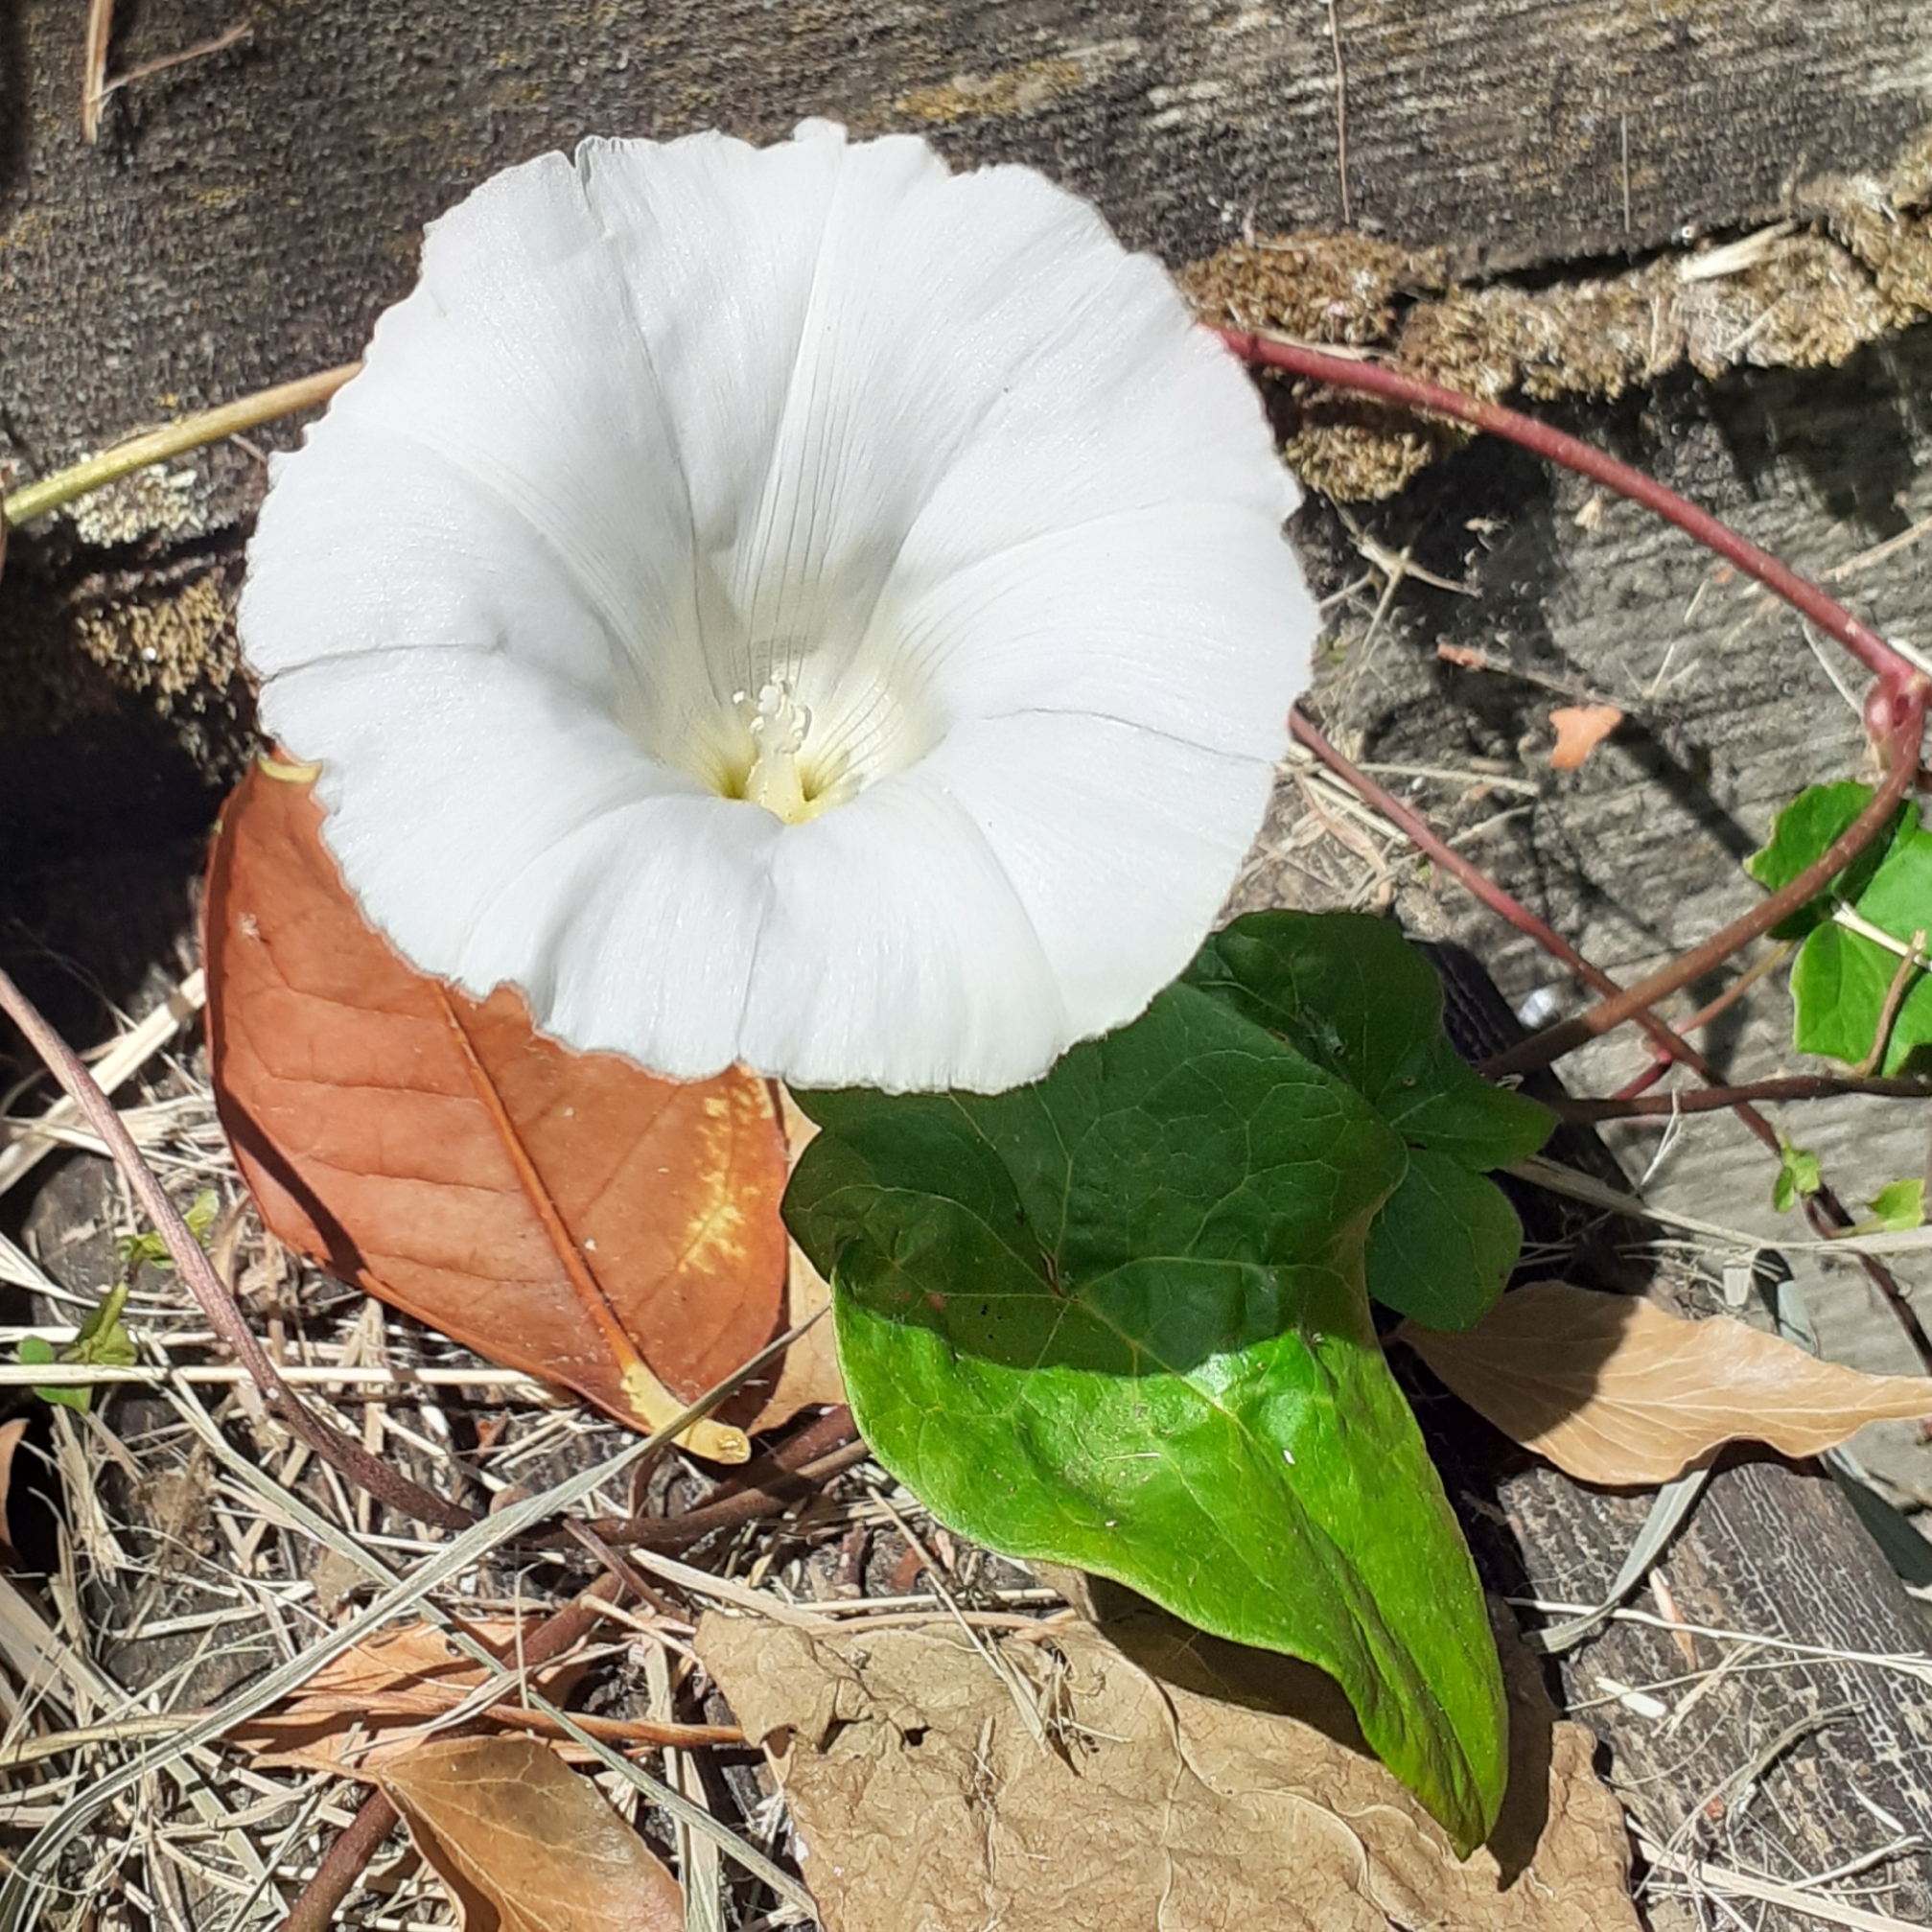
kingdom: Plantae
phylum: Tracheophyta
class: Magnoliopsida
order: Solanales
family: Convolvulaceae
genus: Calystegia
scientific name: Calystegia
